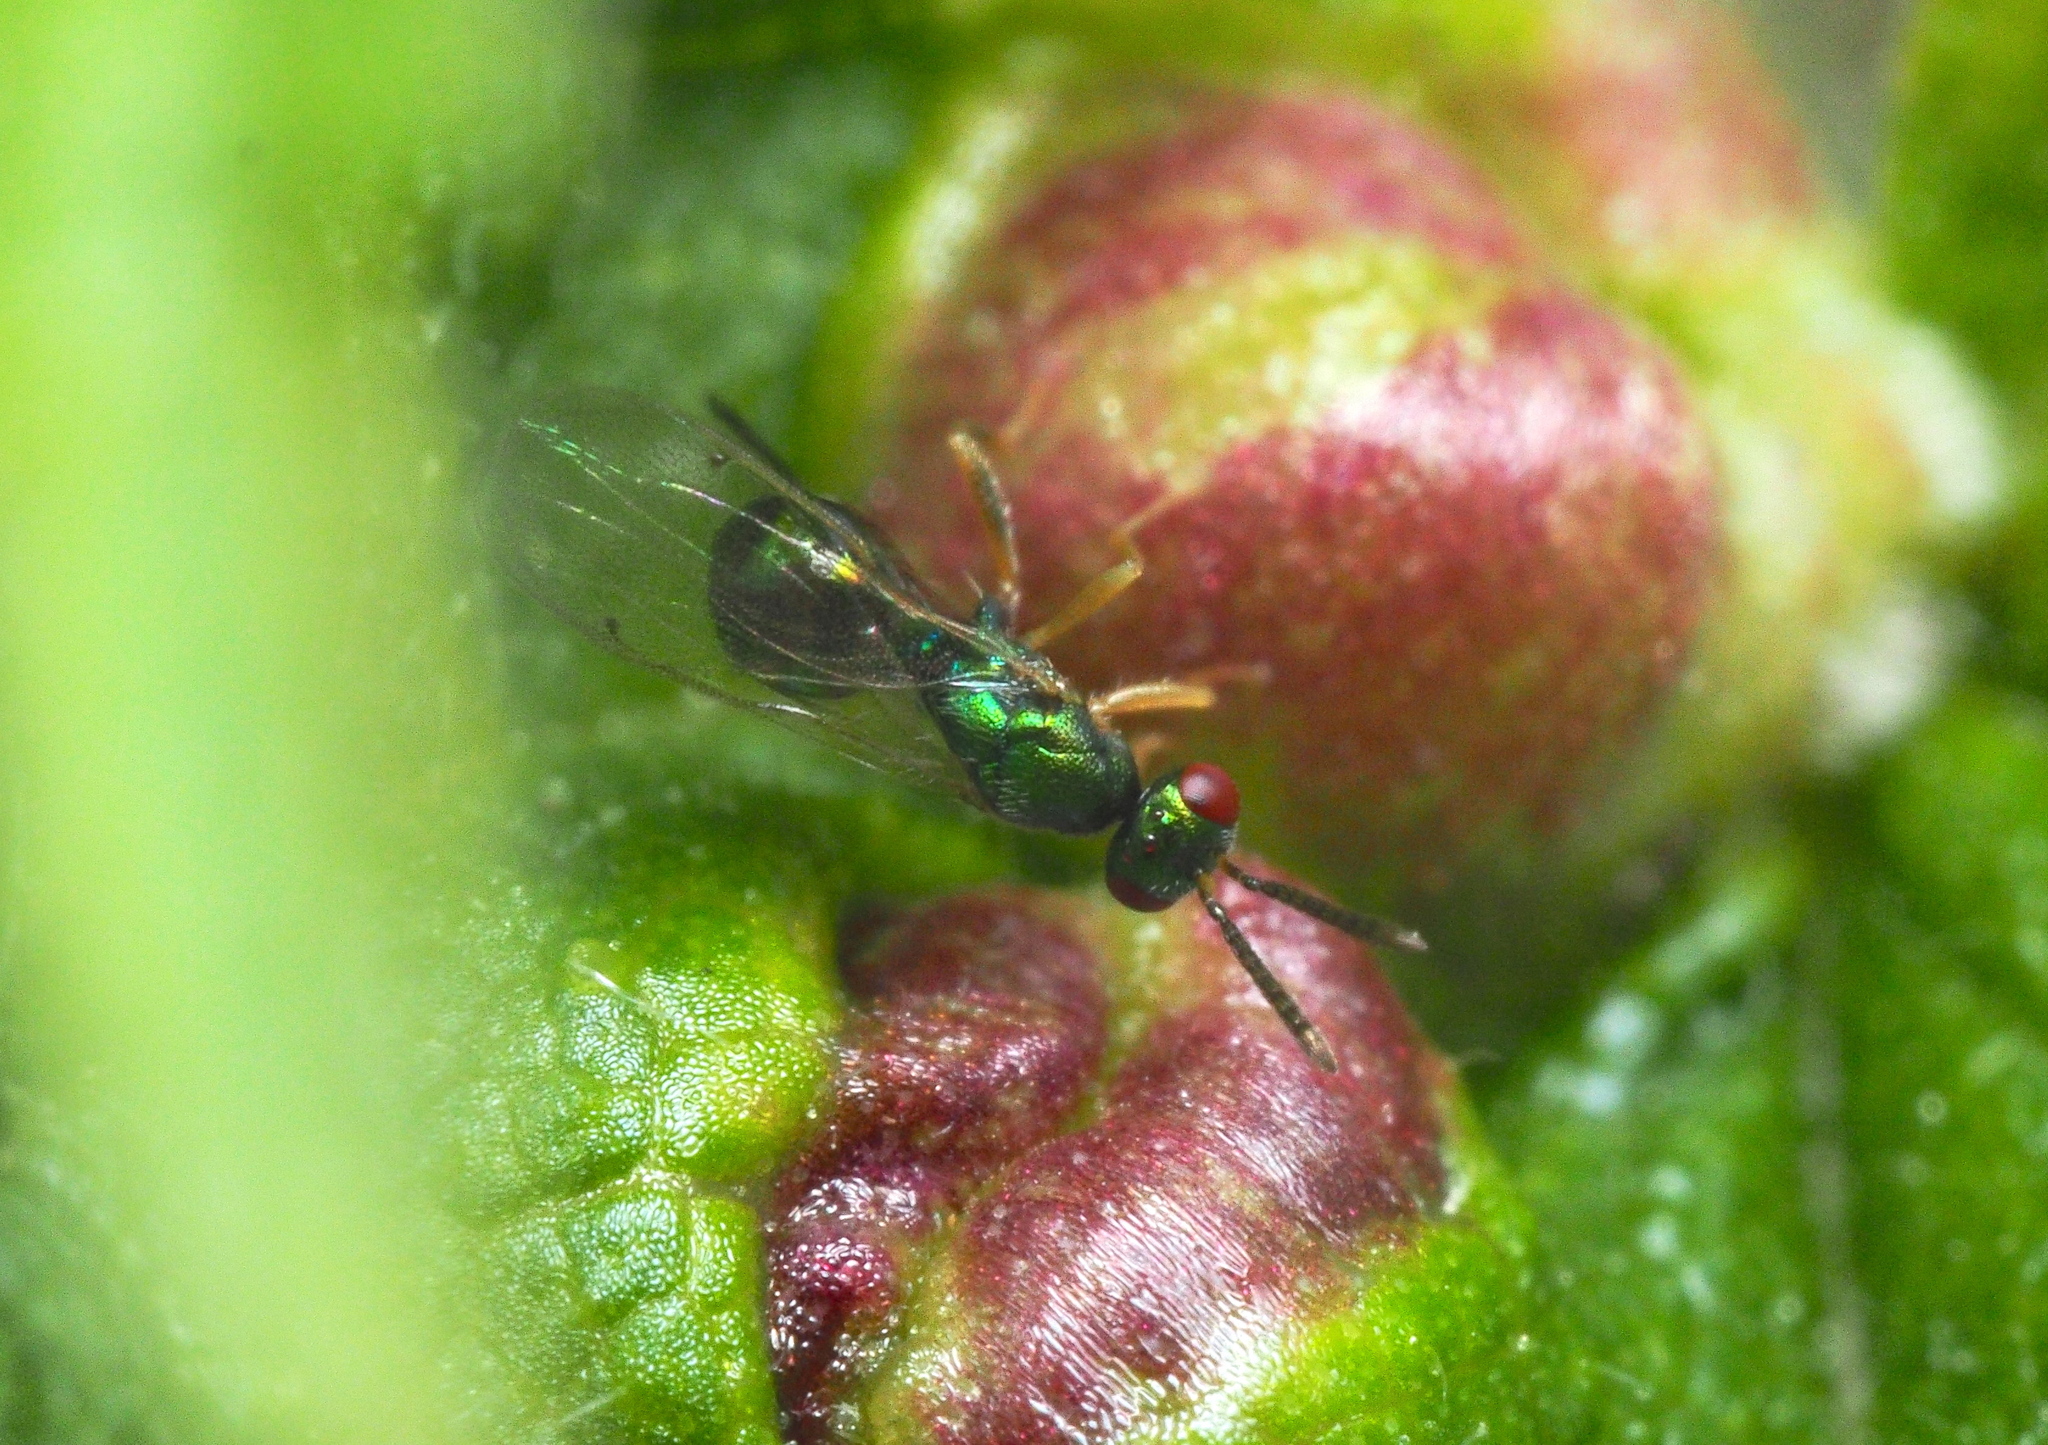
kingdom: Animalia
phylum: Arthropoda
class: Insecta
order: Hymenoptera
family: Torymidae
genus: Torymus
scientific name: Torymus confinis
